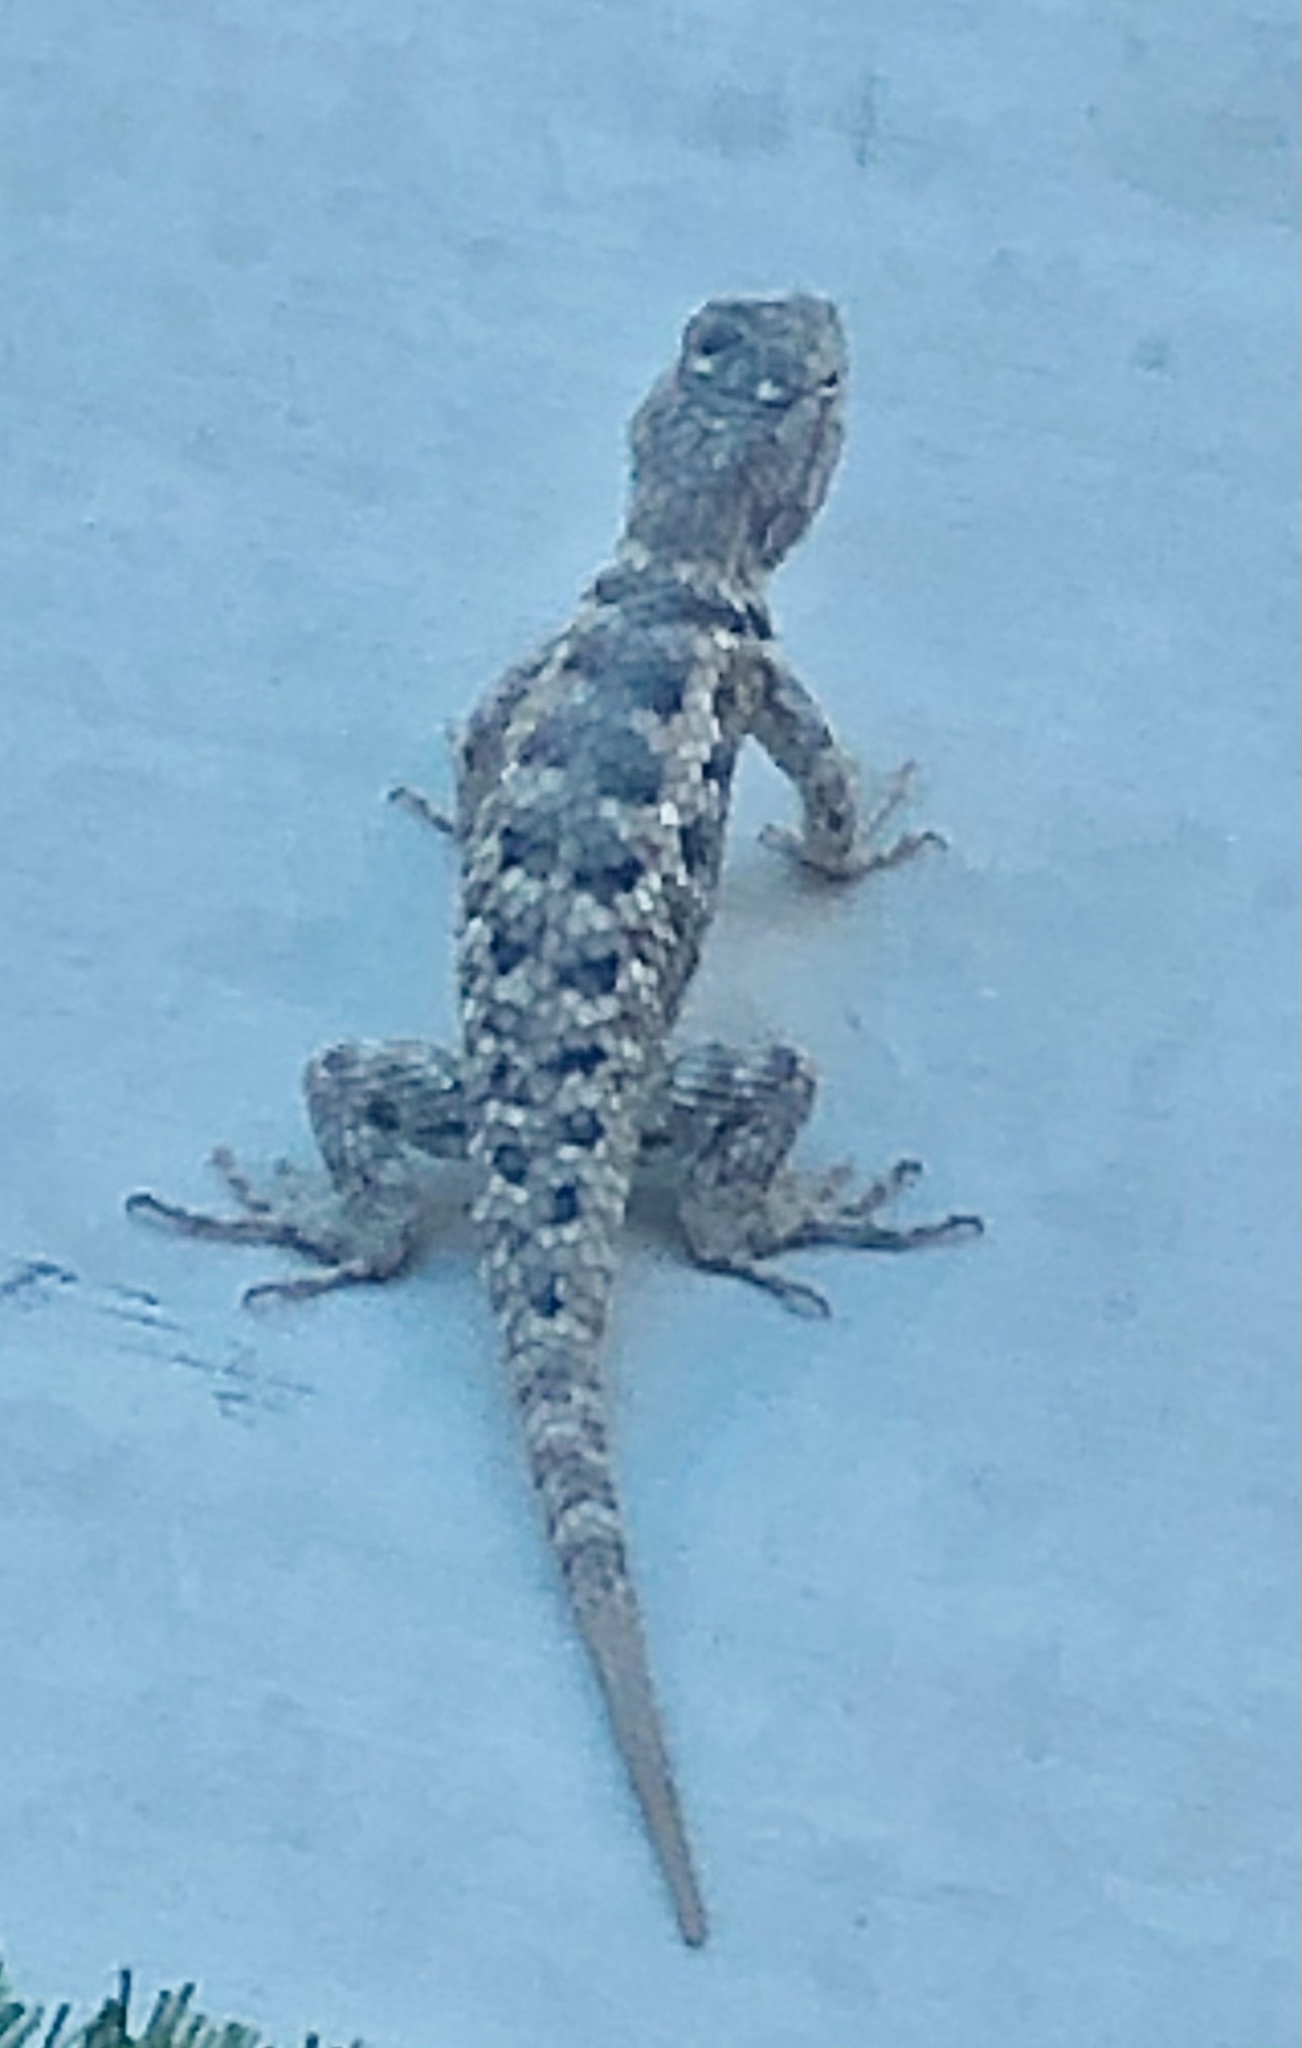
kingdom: Animalia
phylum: Chordata
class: Squamata
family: Phrynosomatidae
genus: Sceloporus
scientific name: Sceloporus magister
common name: Desert spiny lizard
